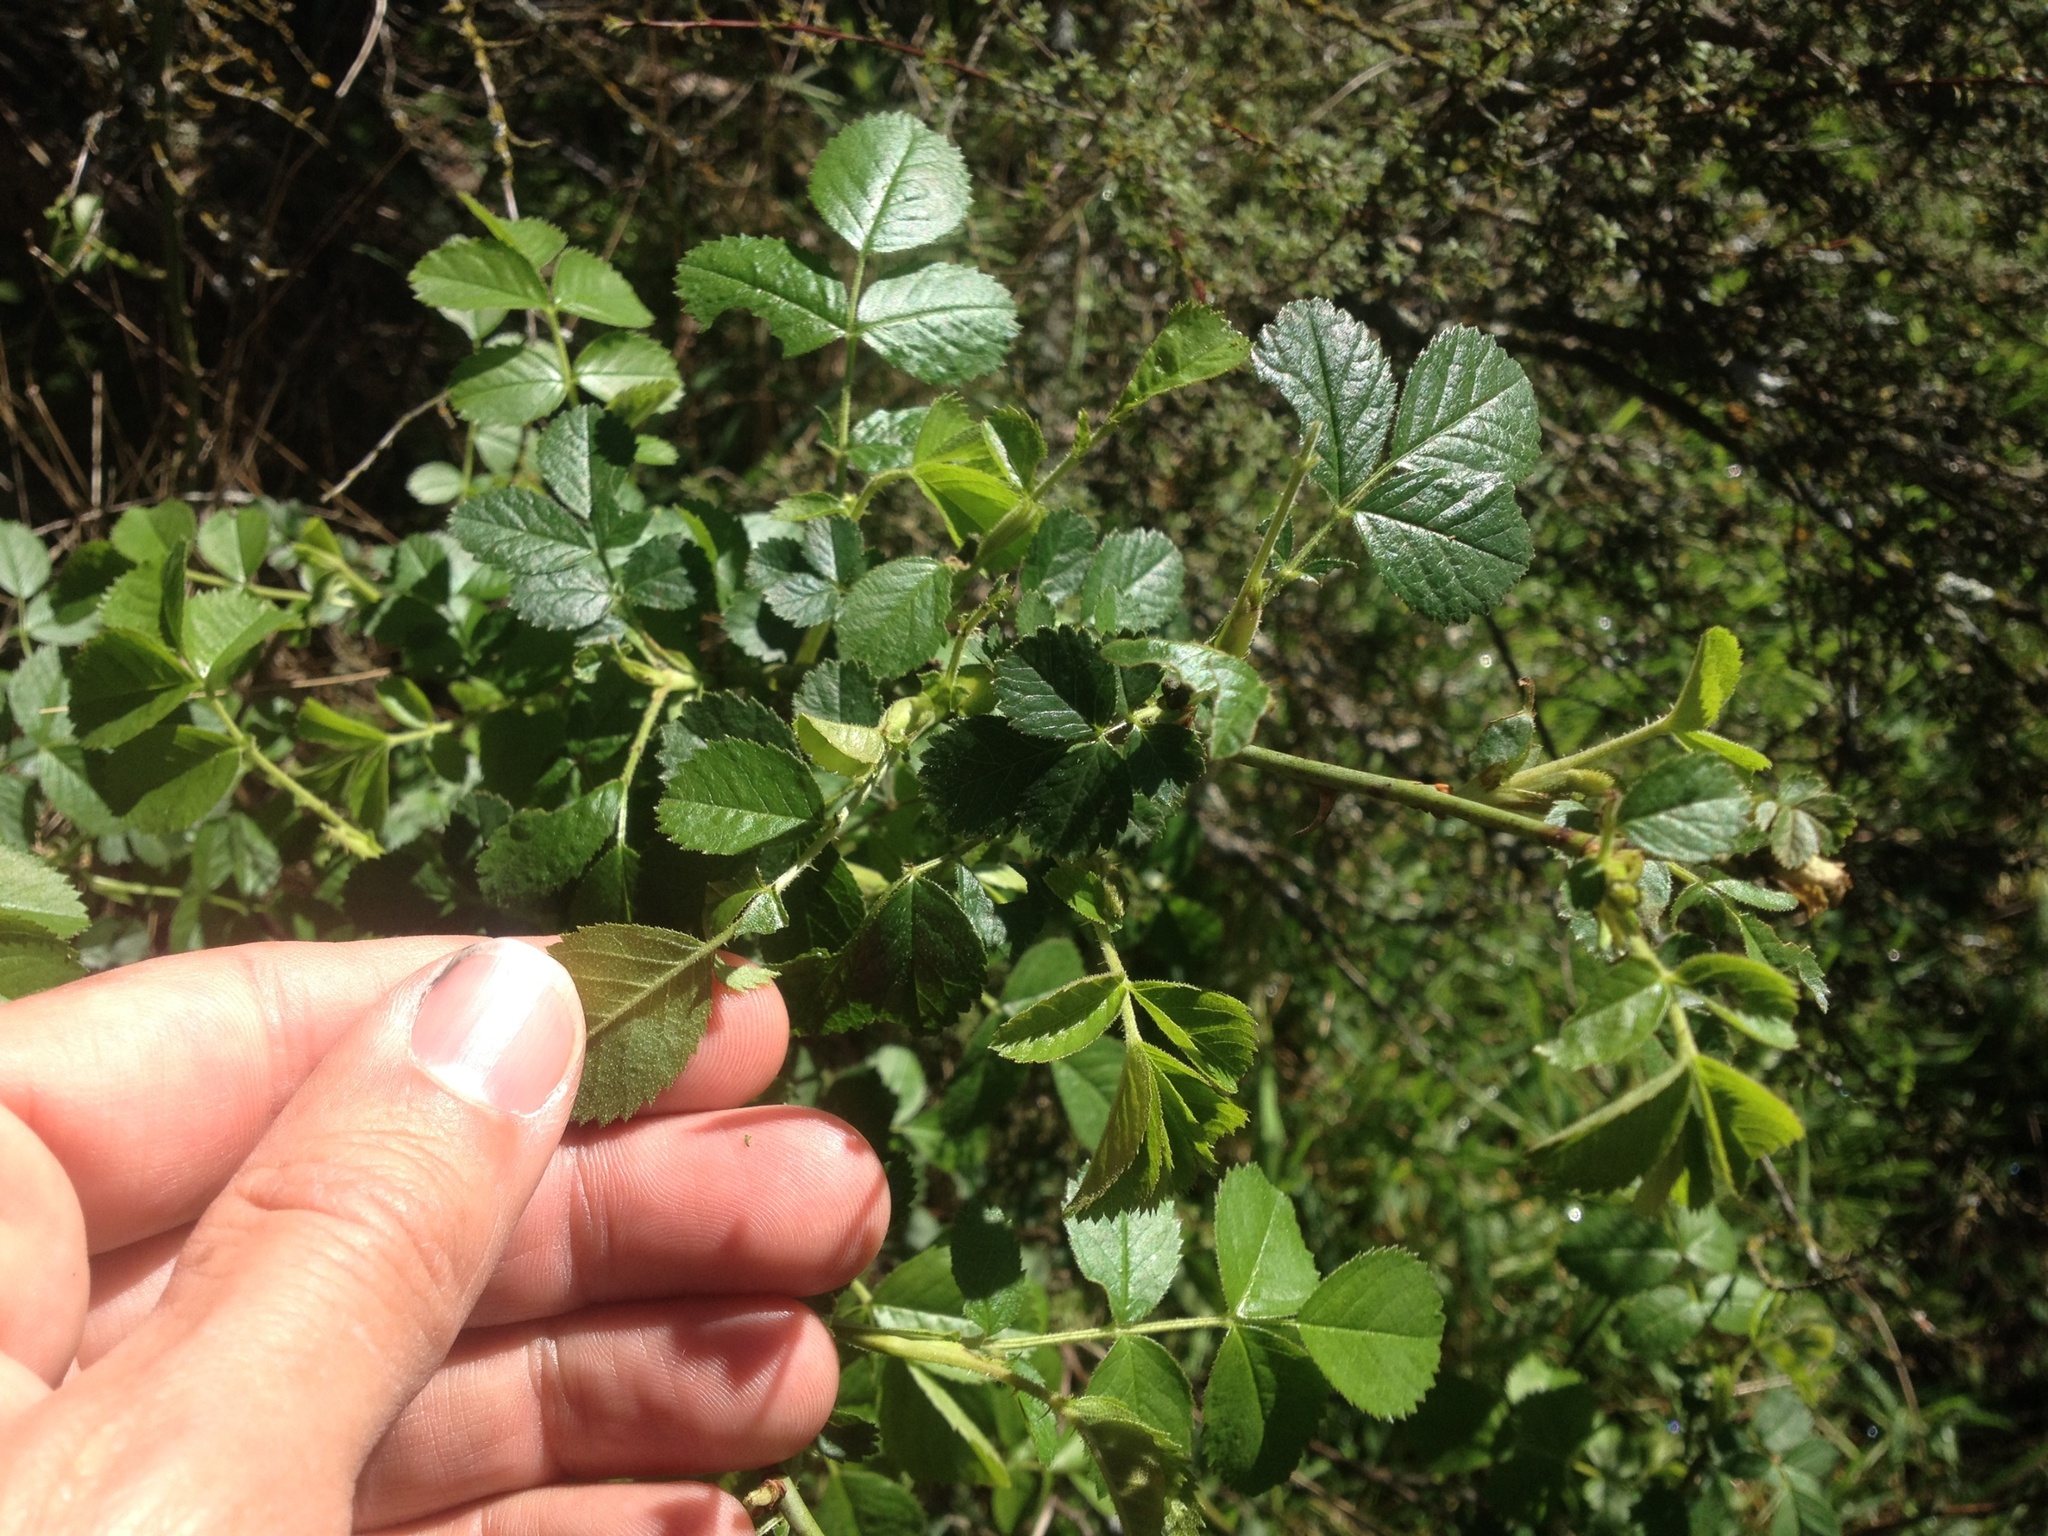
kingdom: Plantae
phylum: Tracheophyta
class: Magnoliopsida
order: Rosales
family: Rosaceae
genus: Rosa
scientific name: Rosa rubiginosa
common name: Sweet-briar
